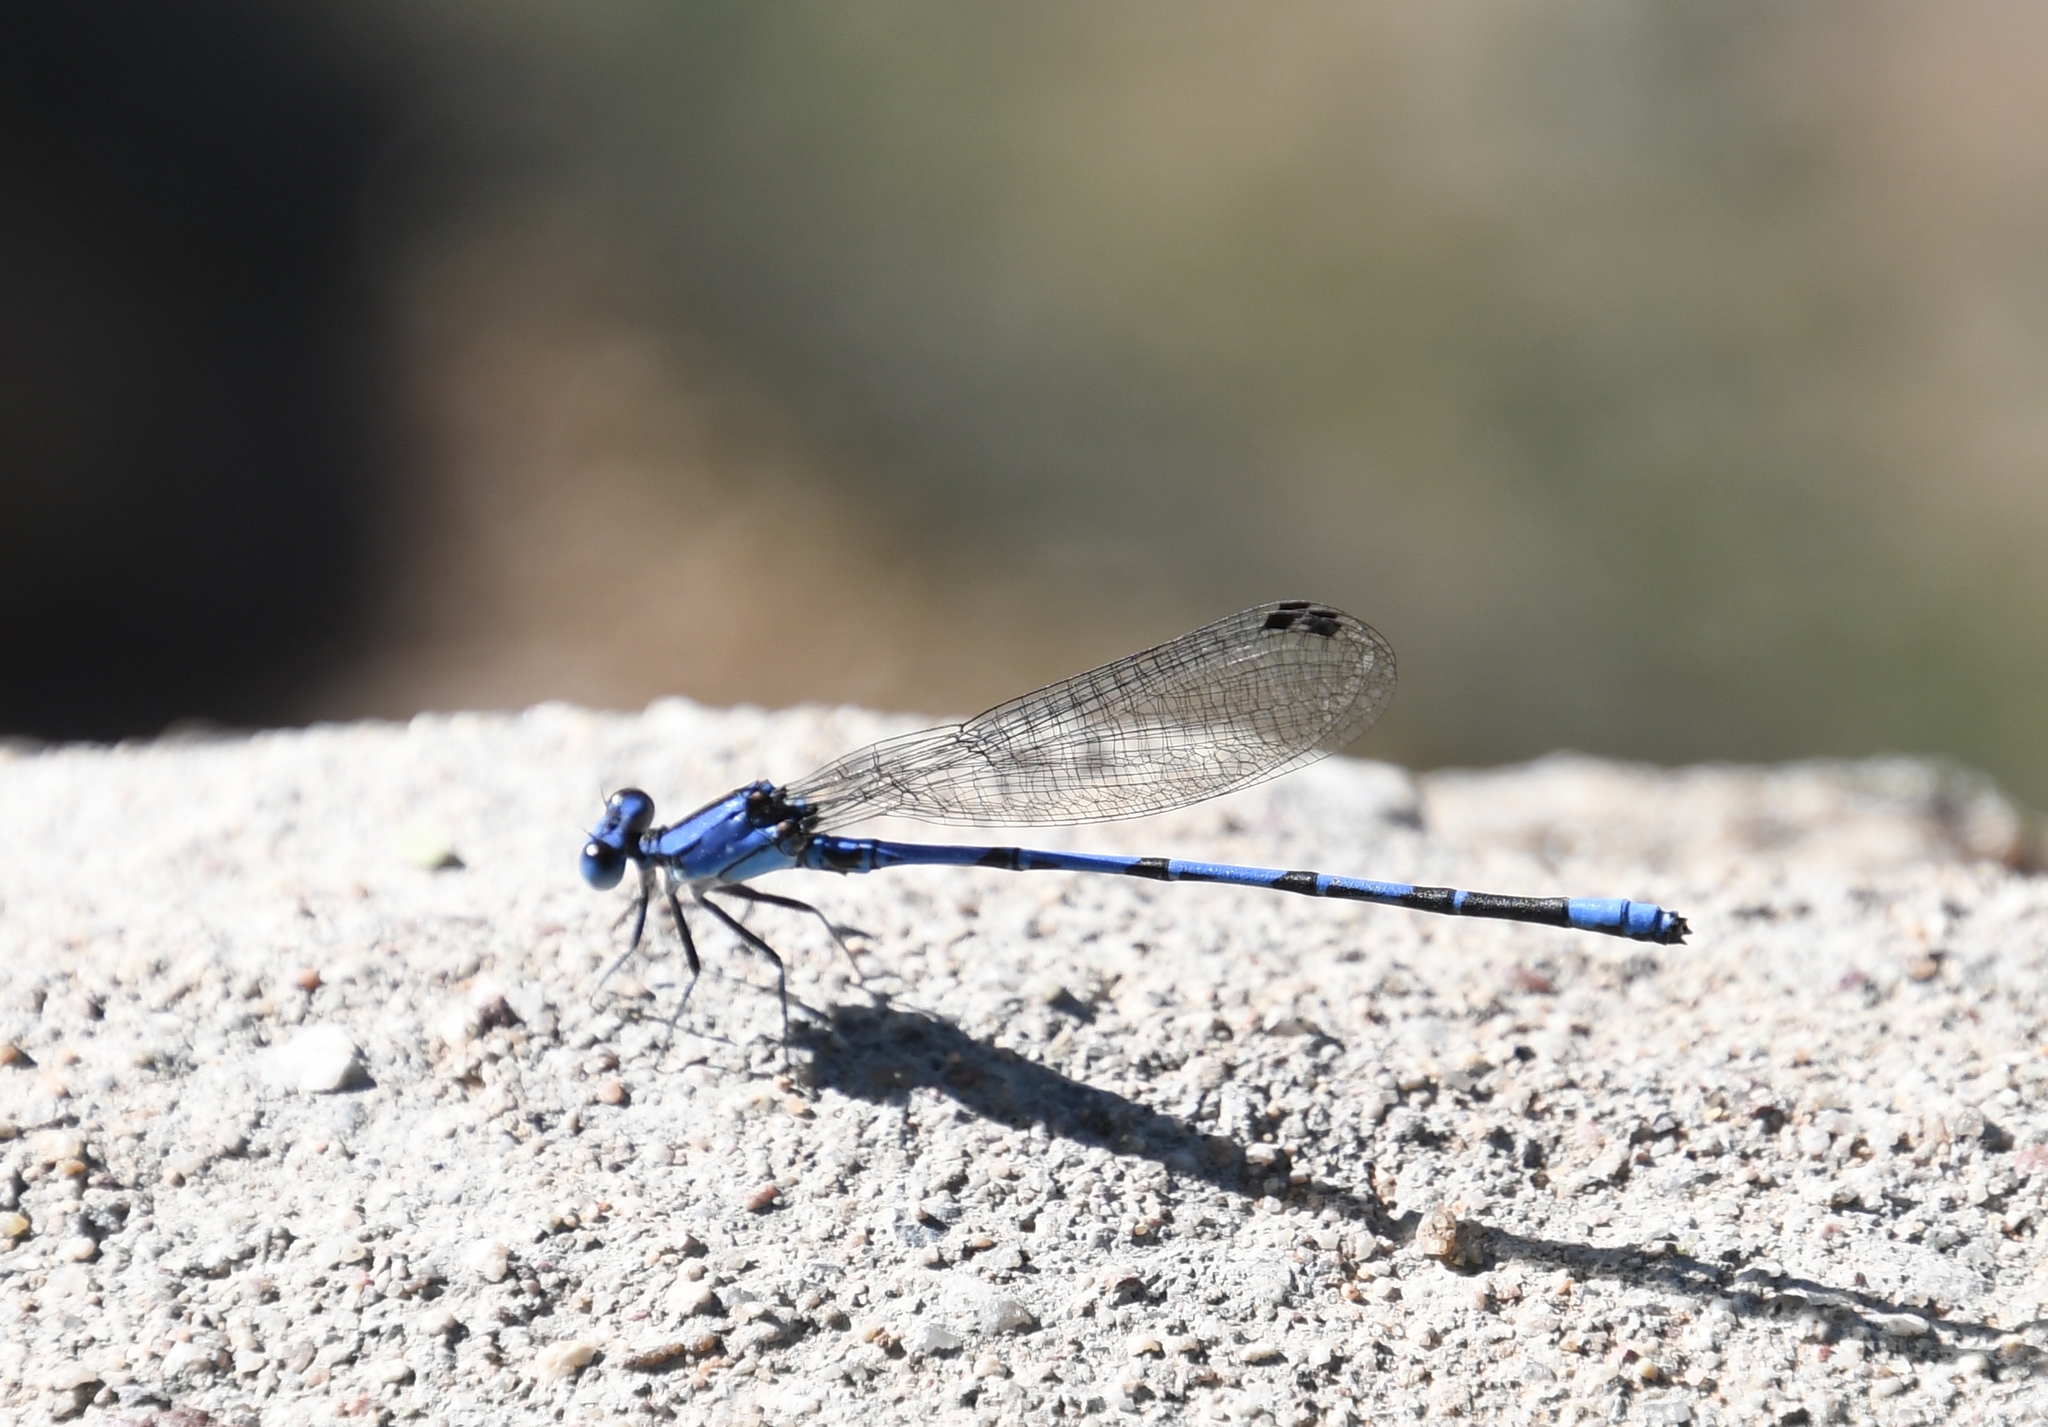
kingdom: Animalia
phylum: Arthropoda
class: Insecta
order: Odonata
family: Coenagrionidae
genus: Argia
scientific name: Argia extranea
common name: Spine-tipped dancer
